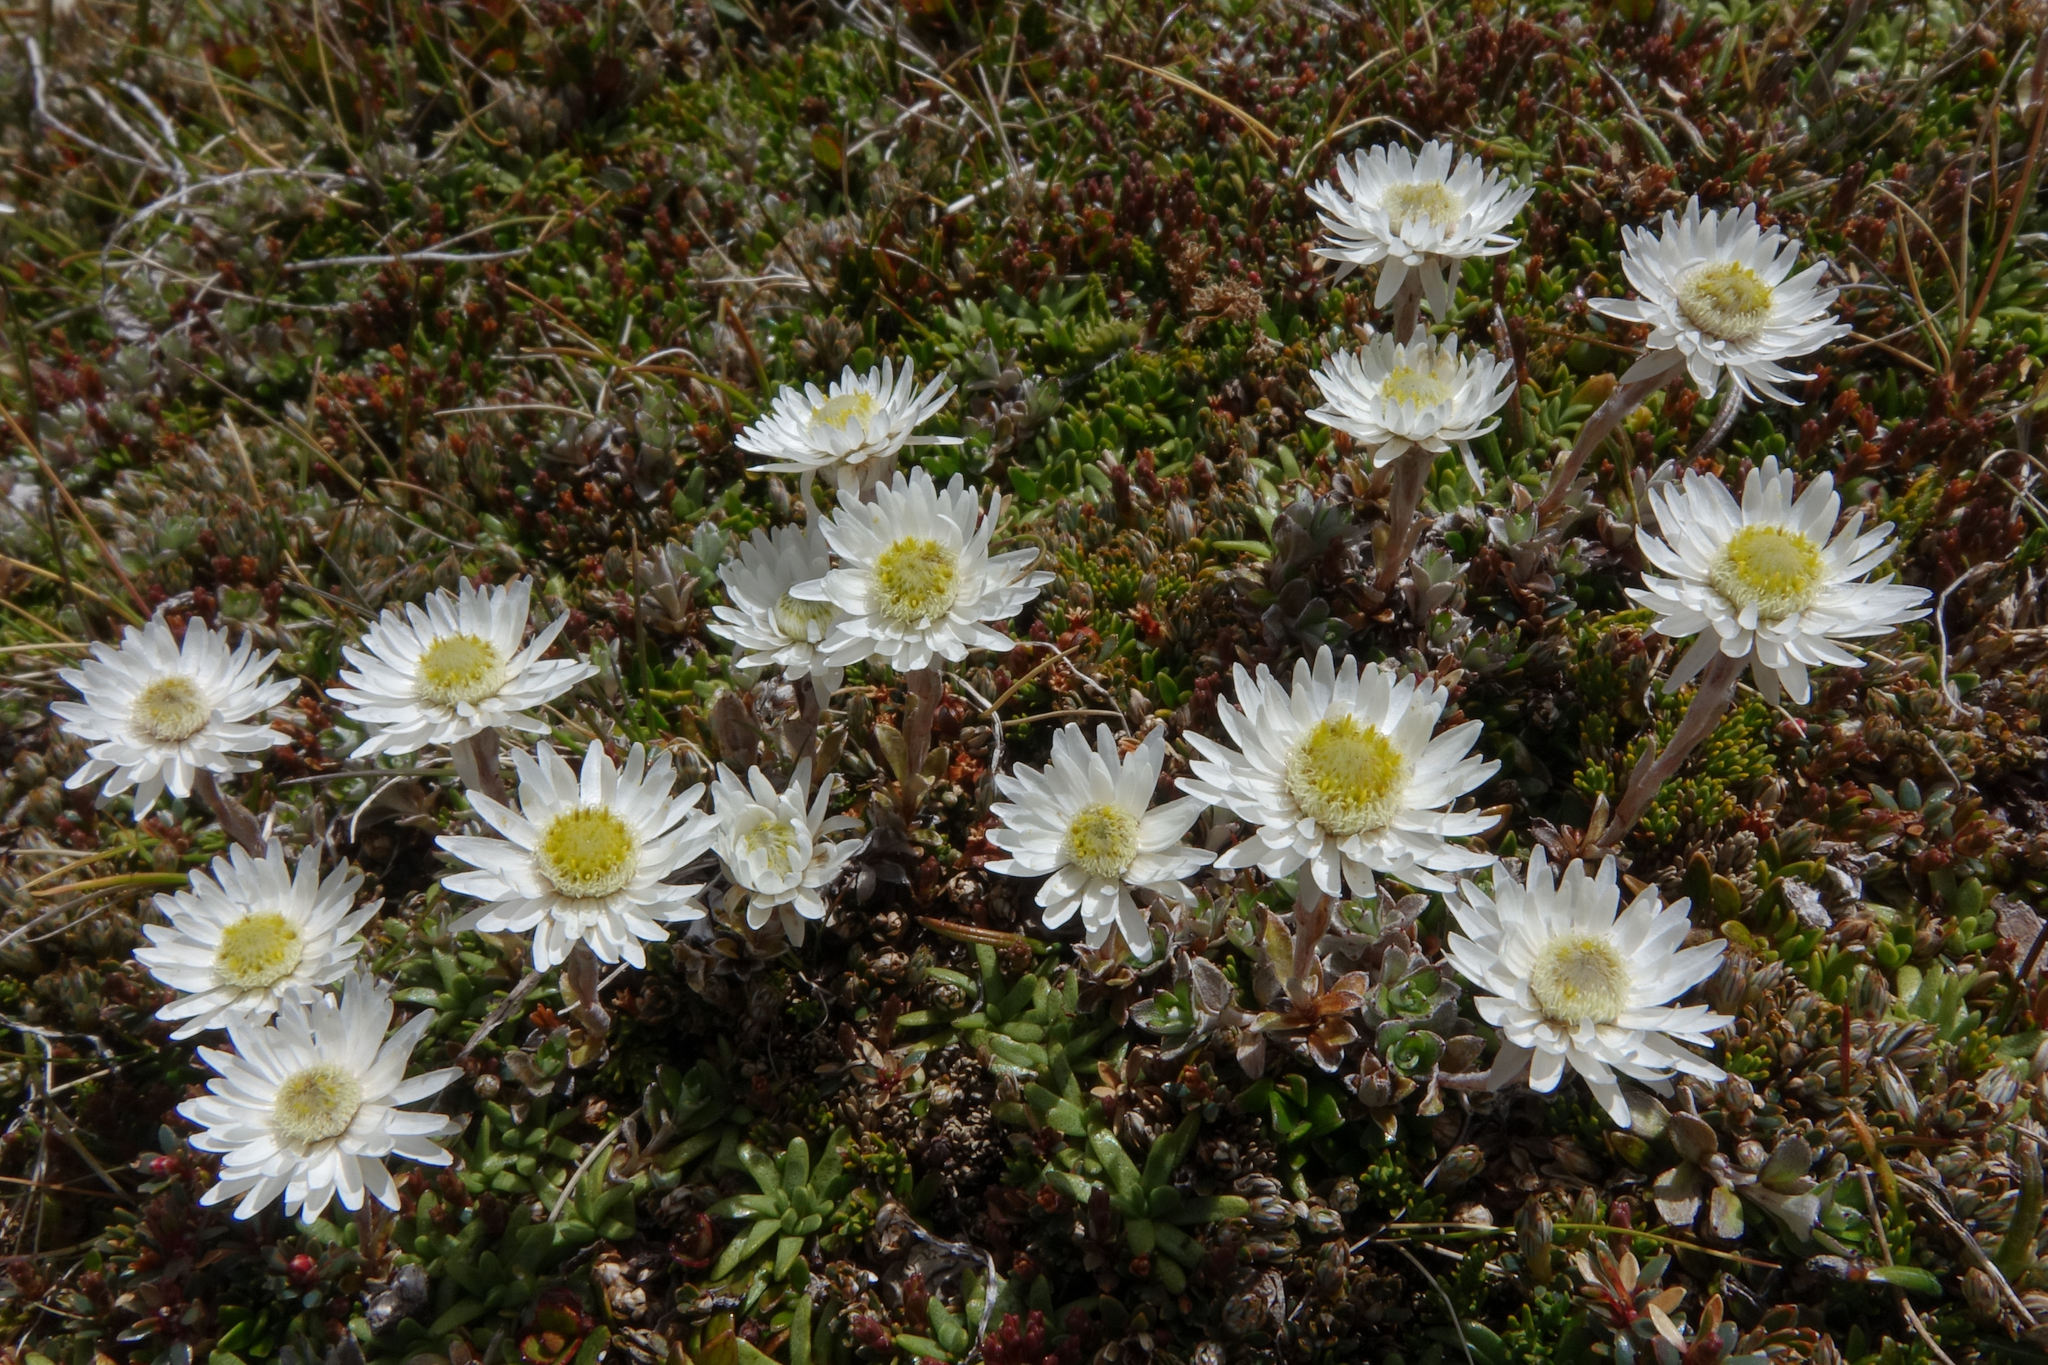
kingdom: Plantae
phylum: Tracheophyta
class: Magnoliopsida
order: Asterales
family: Asteraceae
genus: Anaphalioides
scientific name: Anaphalioides bellidioides
